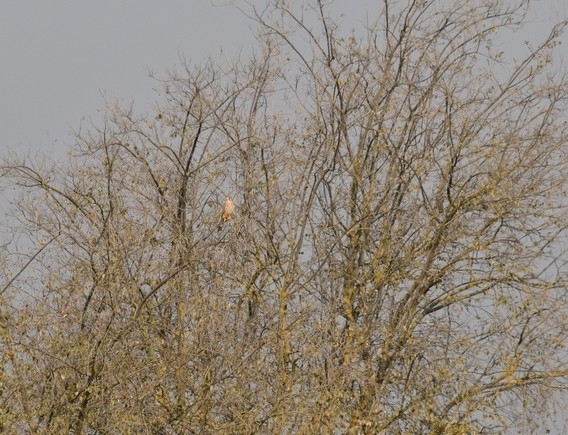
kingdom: Animalia
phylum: Chordata
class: Aves
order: Falconiformes
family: Falconidae
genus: Falco
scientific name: Falco tinnunculus
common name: Common kestrel
